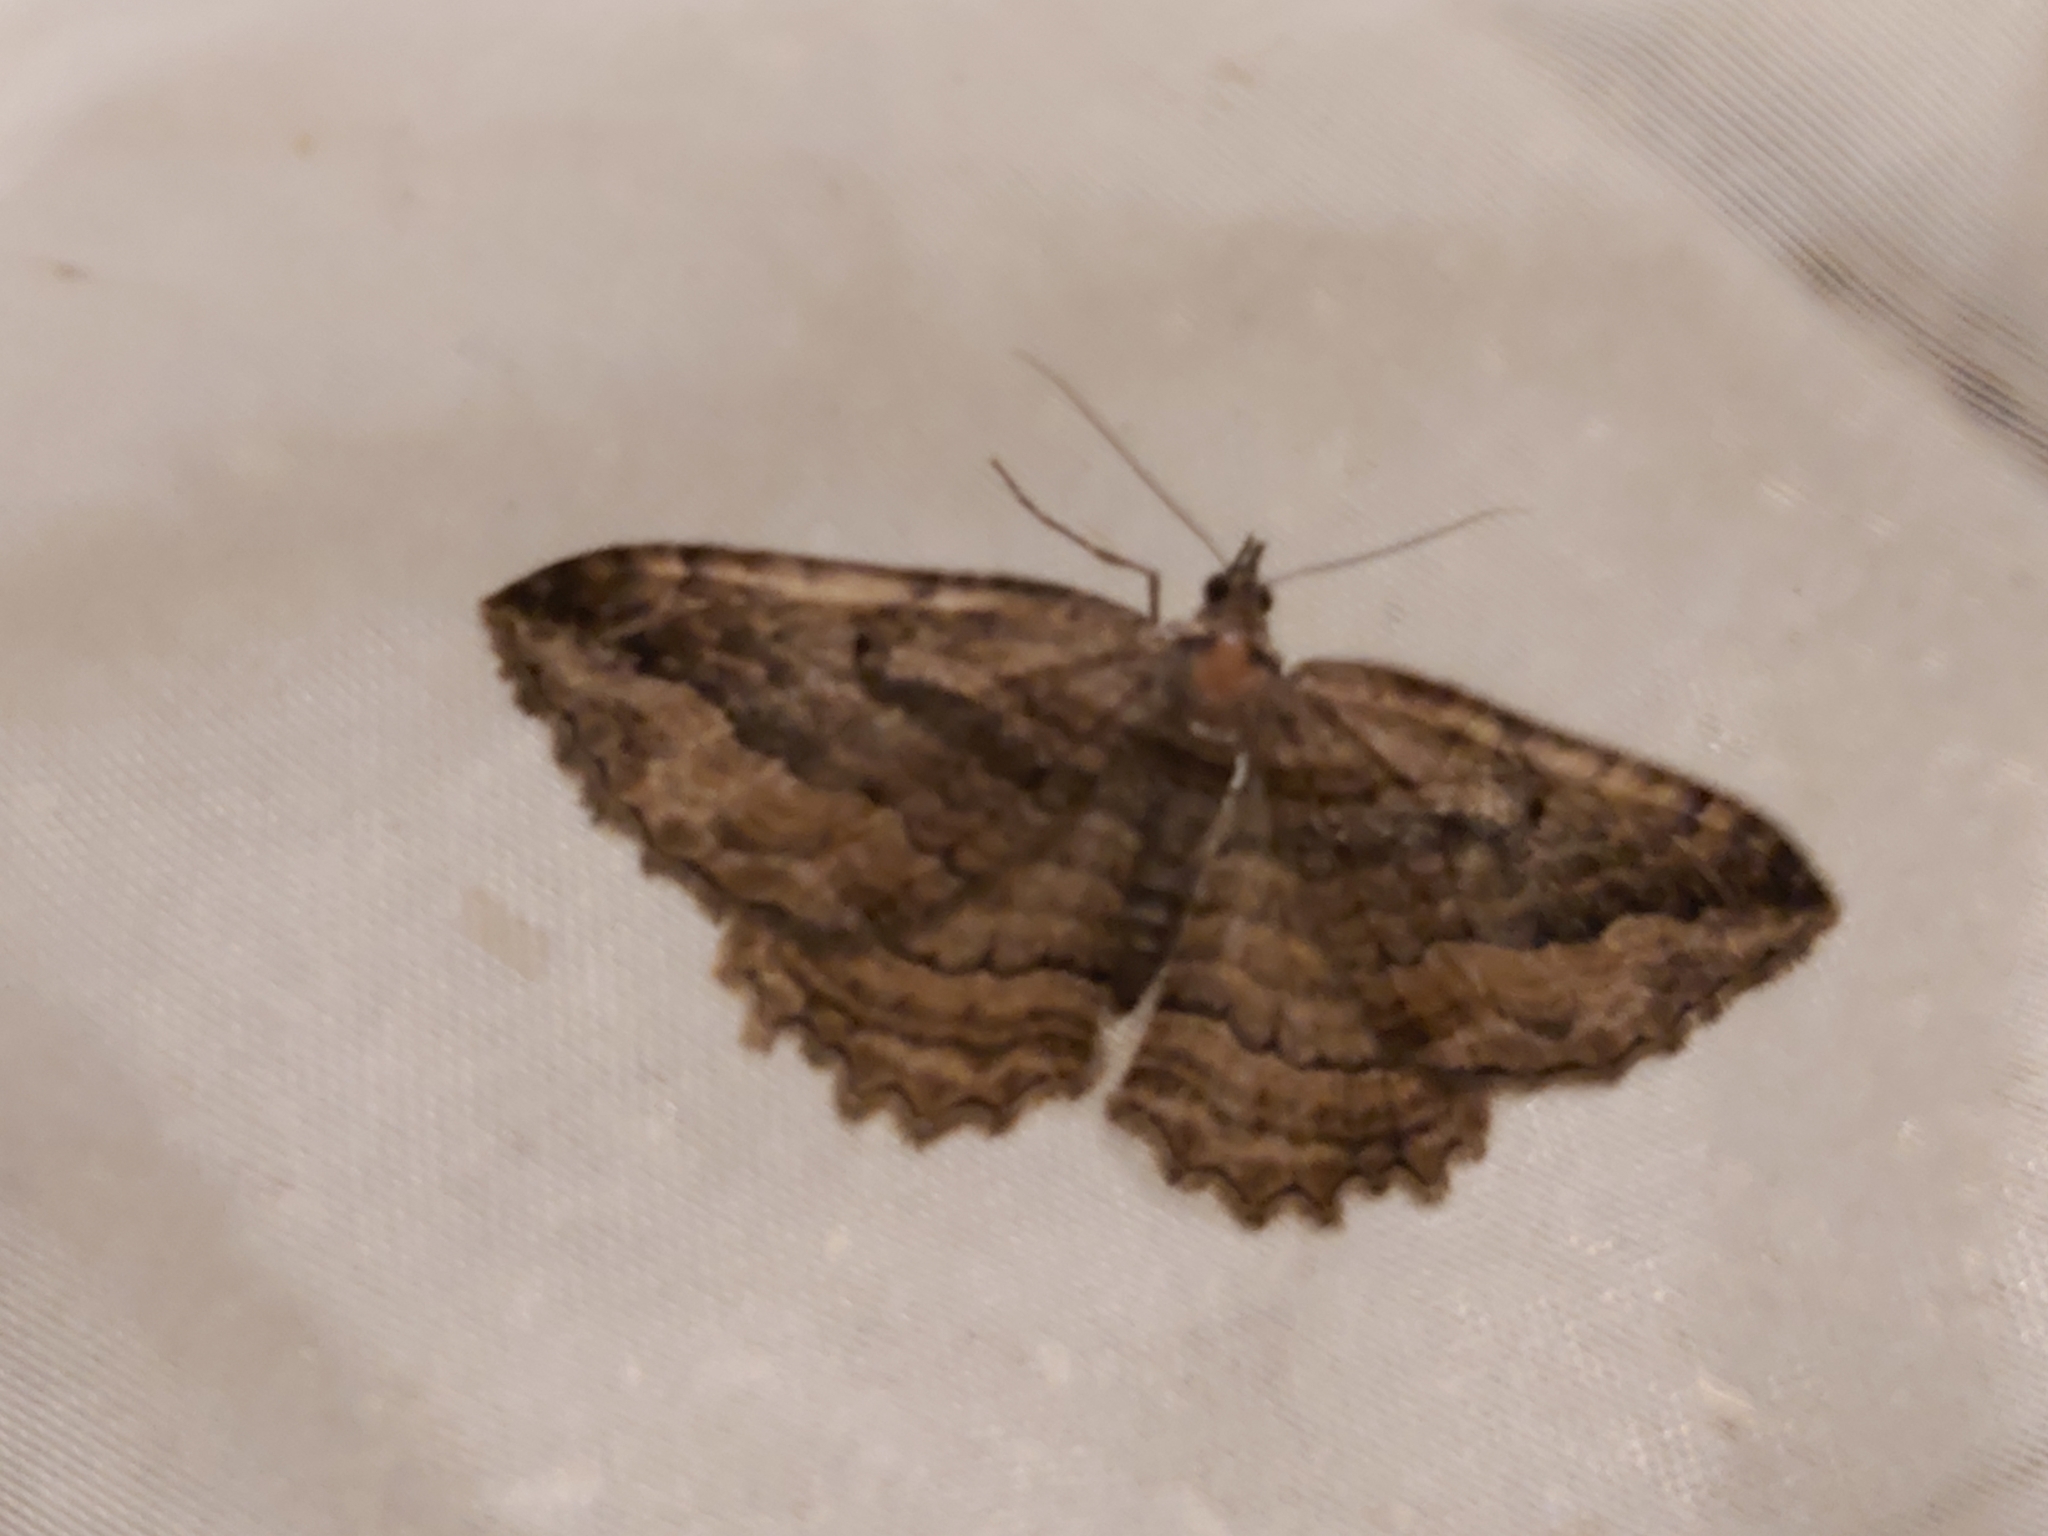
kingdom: Animalia
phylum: Arthropoda
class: Insecta
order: Lepidoptera
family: Geometridae
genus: Philereme
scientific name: Philereme transversata
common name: Dark umber
